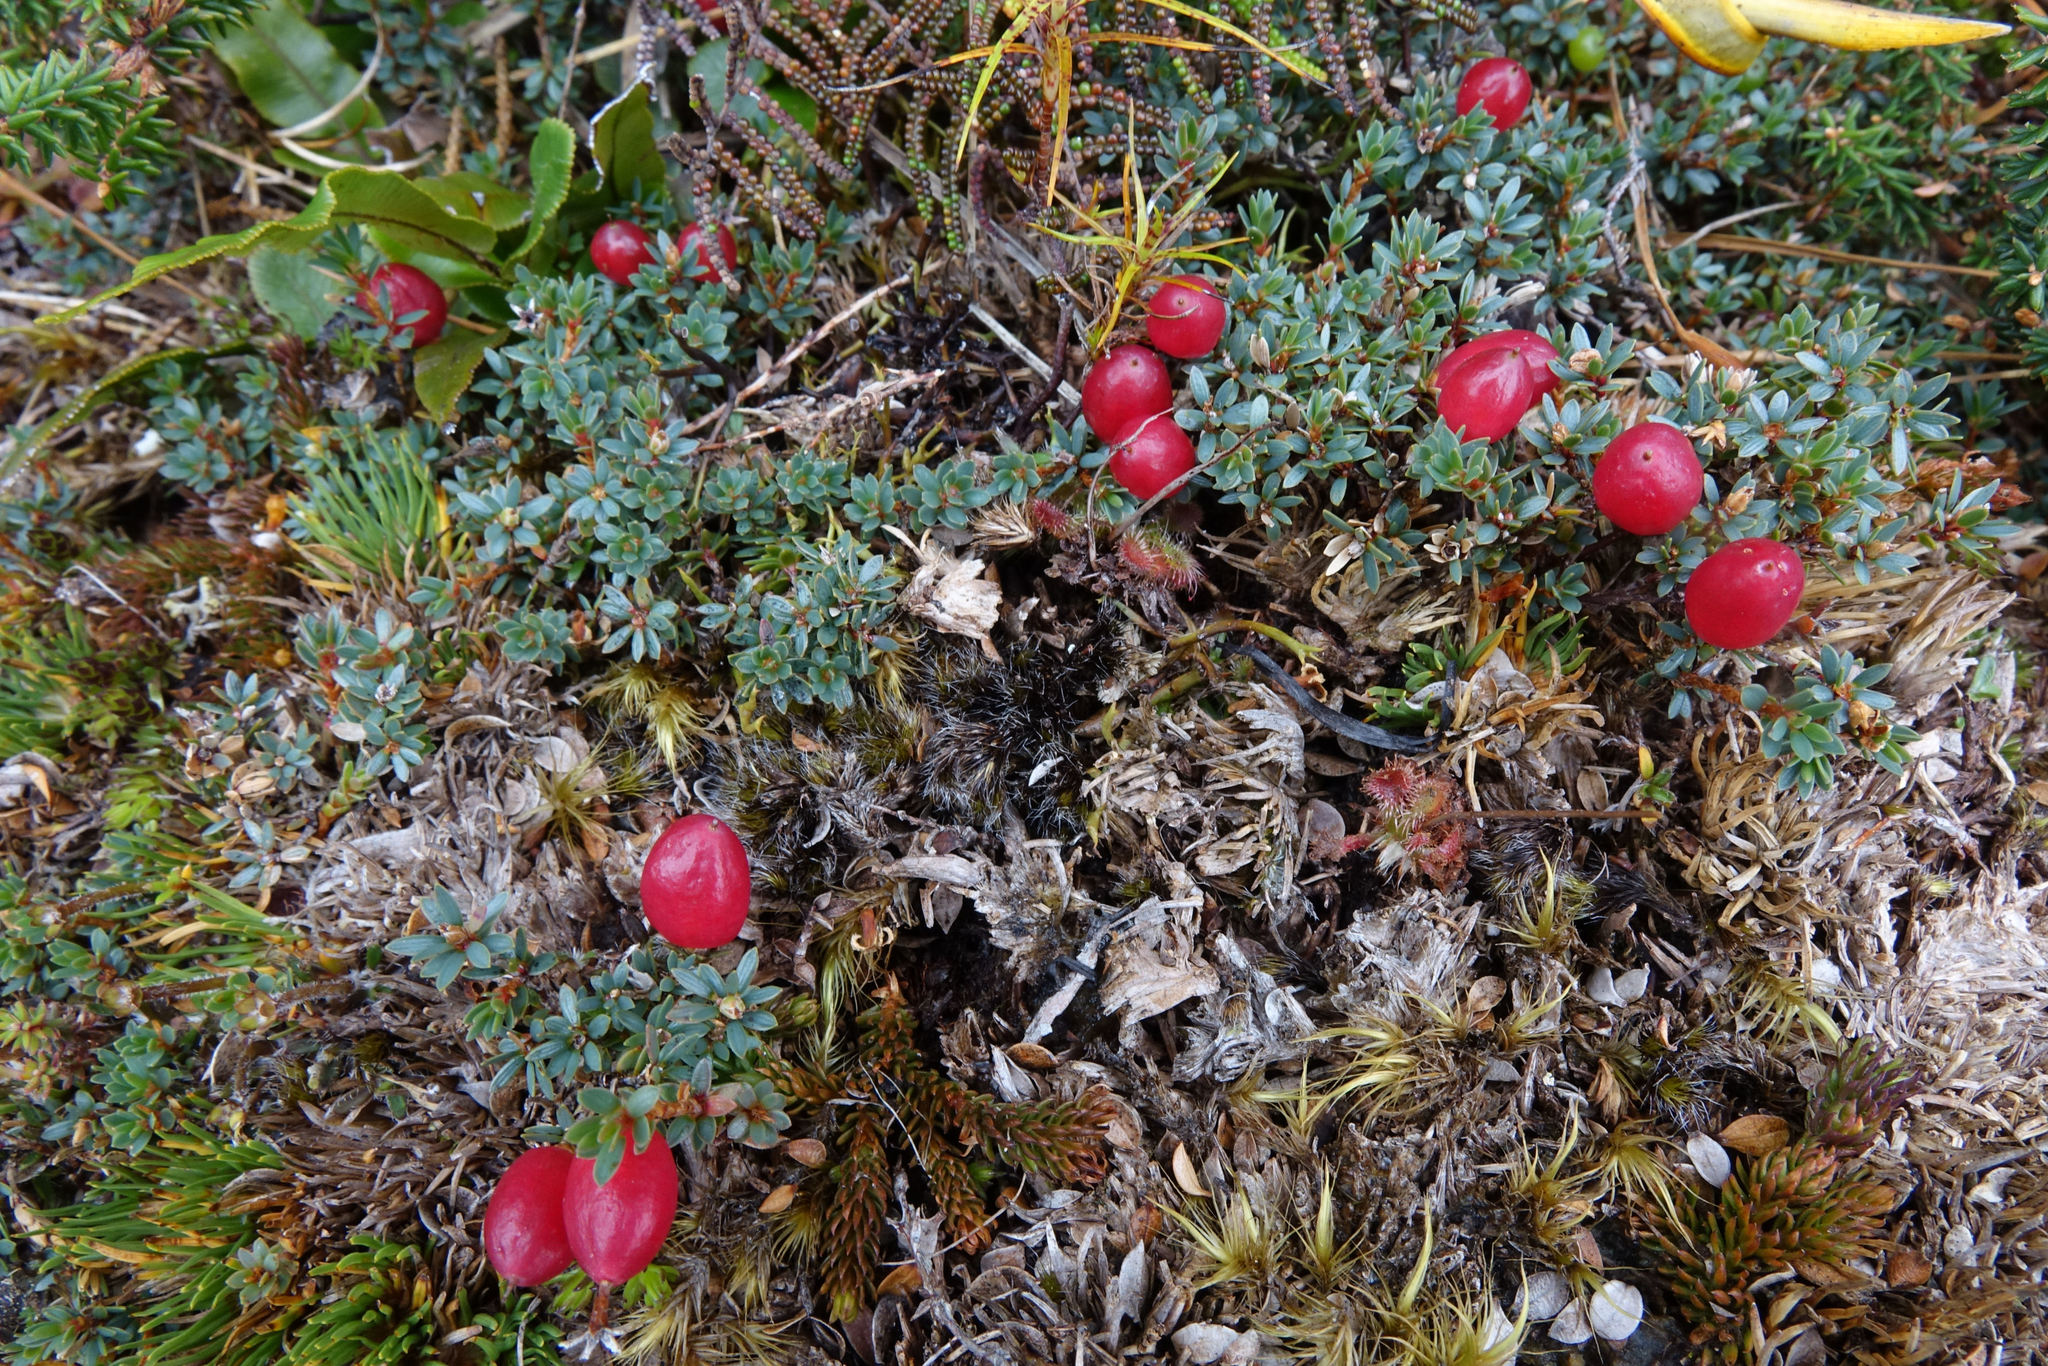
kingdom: Plantae
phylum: Tracheophyta
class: Magnoliopsida
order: Ericales
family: Ericaceae
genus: Pentachondra
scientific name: Pentachondra pumila
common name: Carpet-heath
